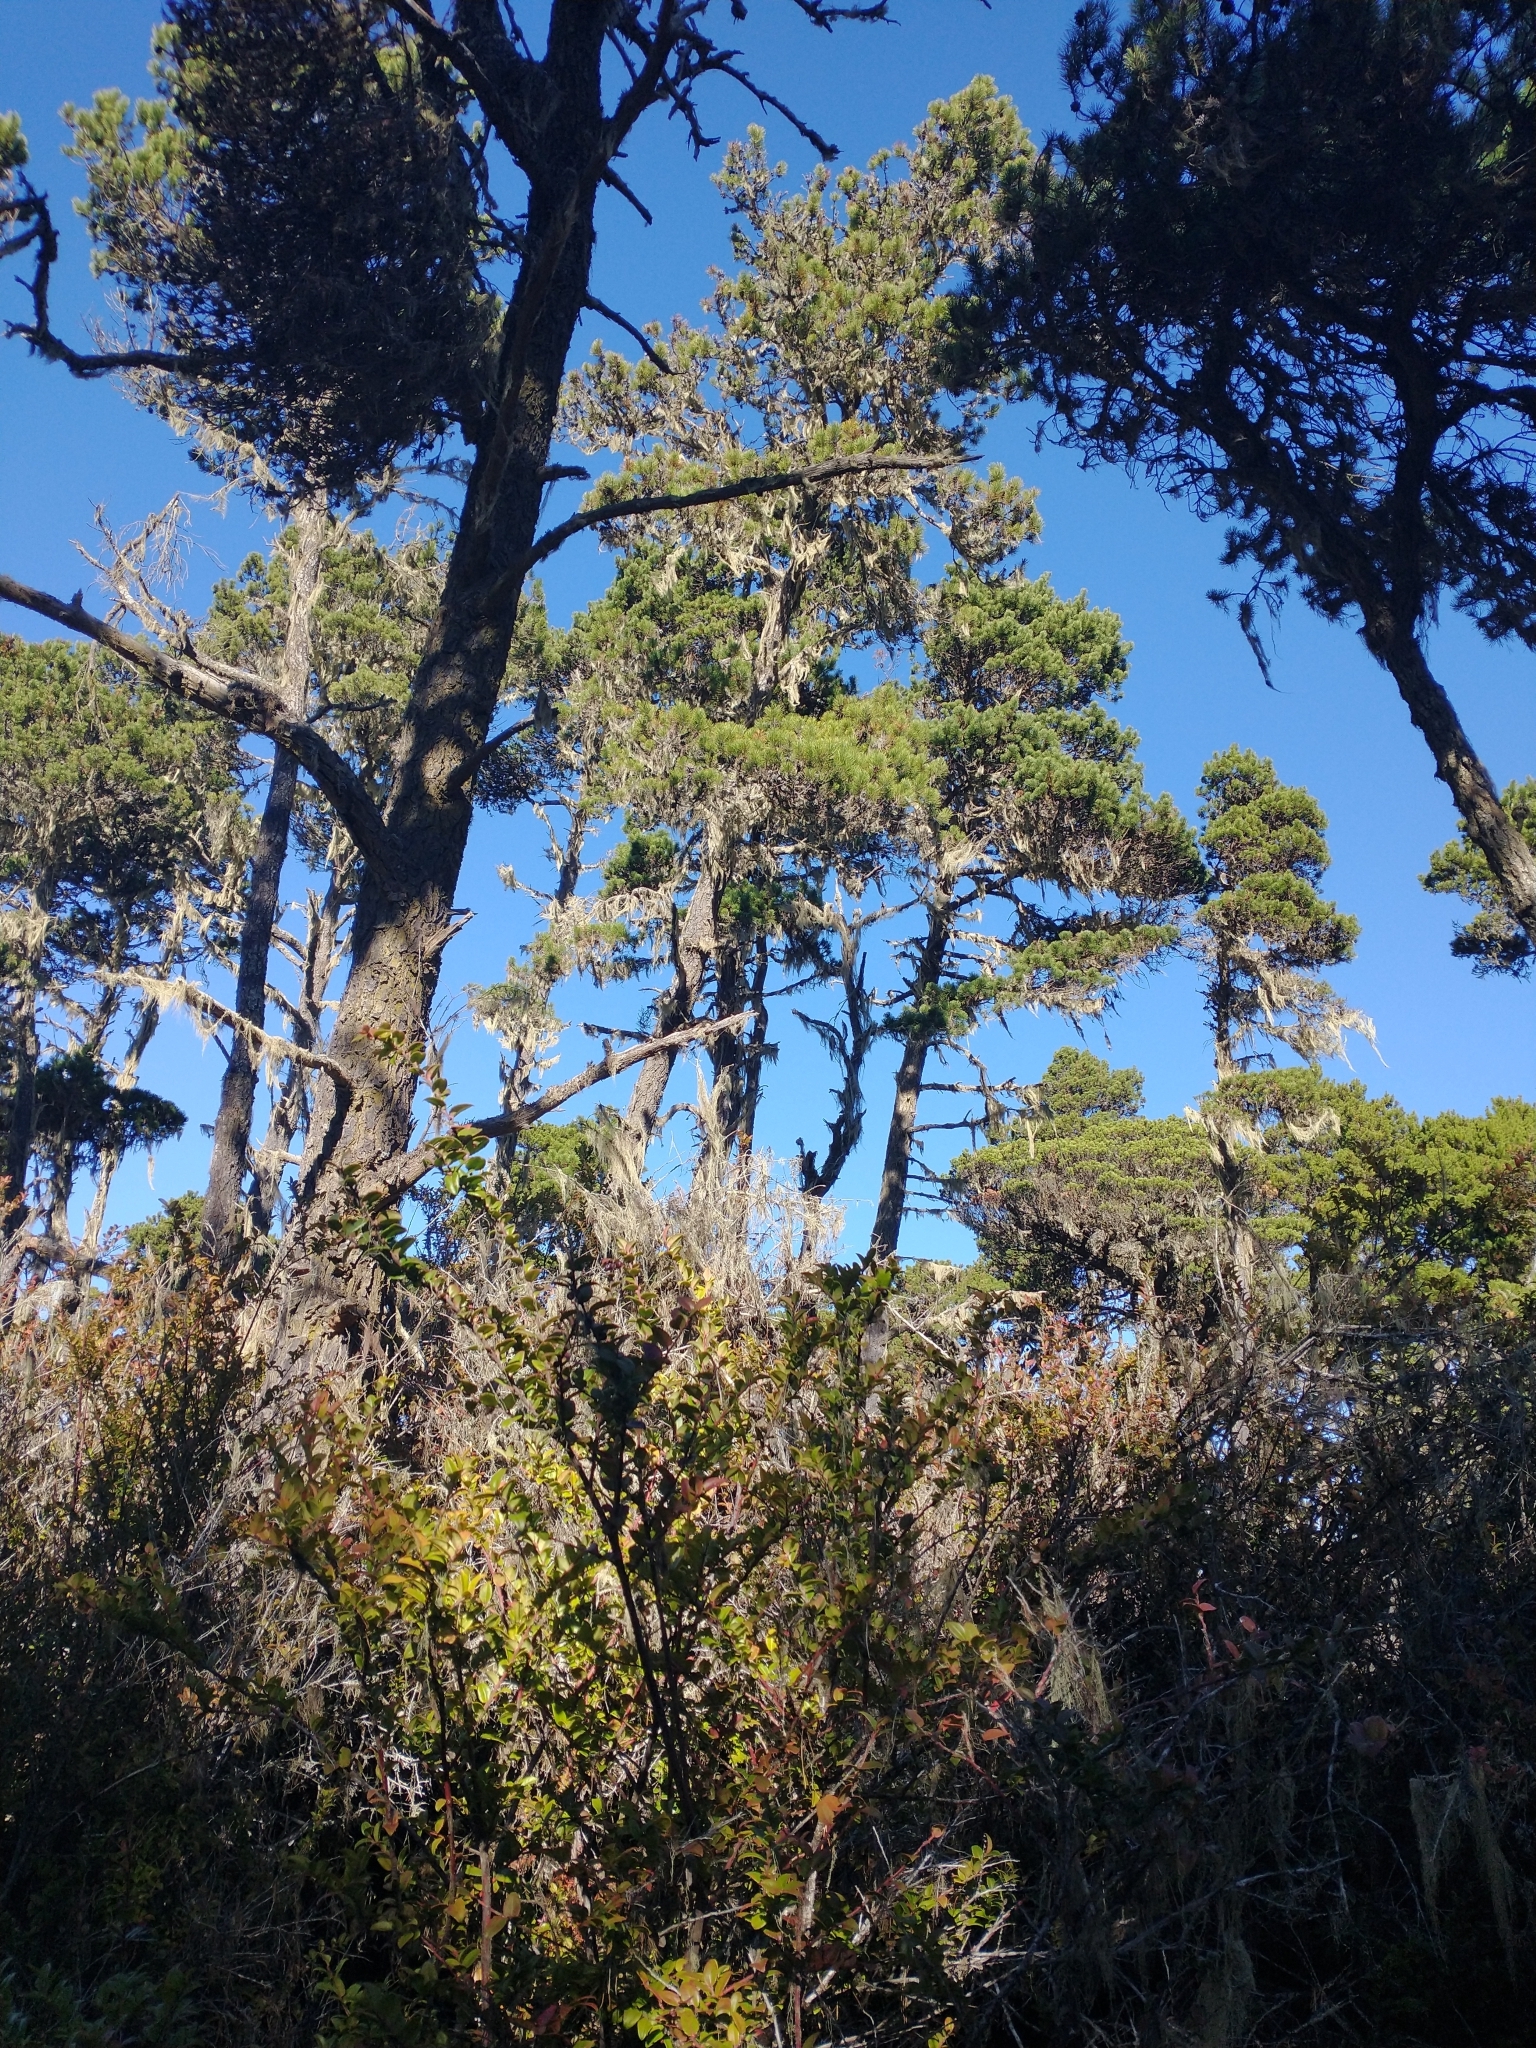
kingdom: Plantae
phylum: Tracheophyta
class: Pinopsida
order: Pinales
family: Pinaceae
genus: Pinus
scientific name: Pinus contorta
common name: Lodgepole pine
